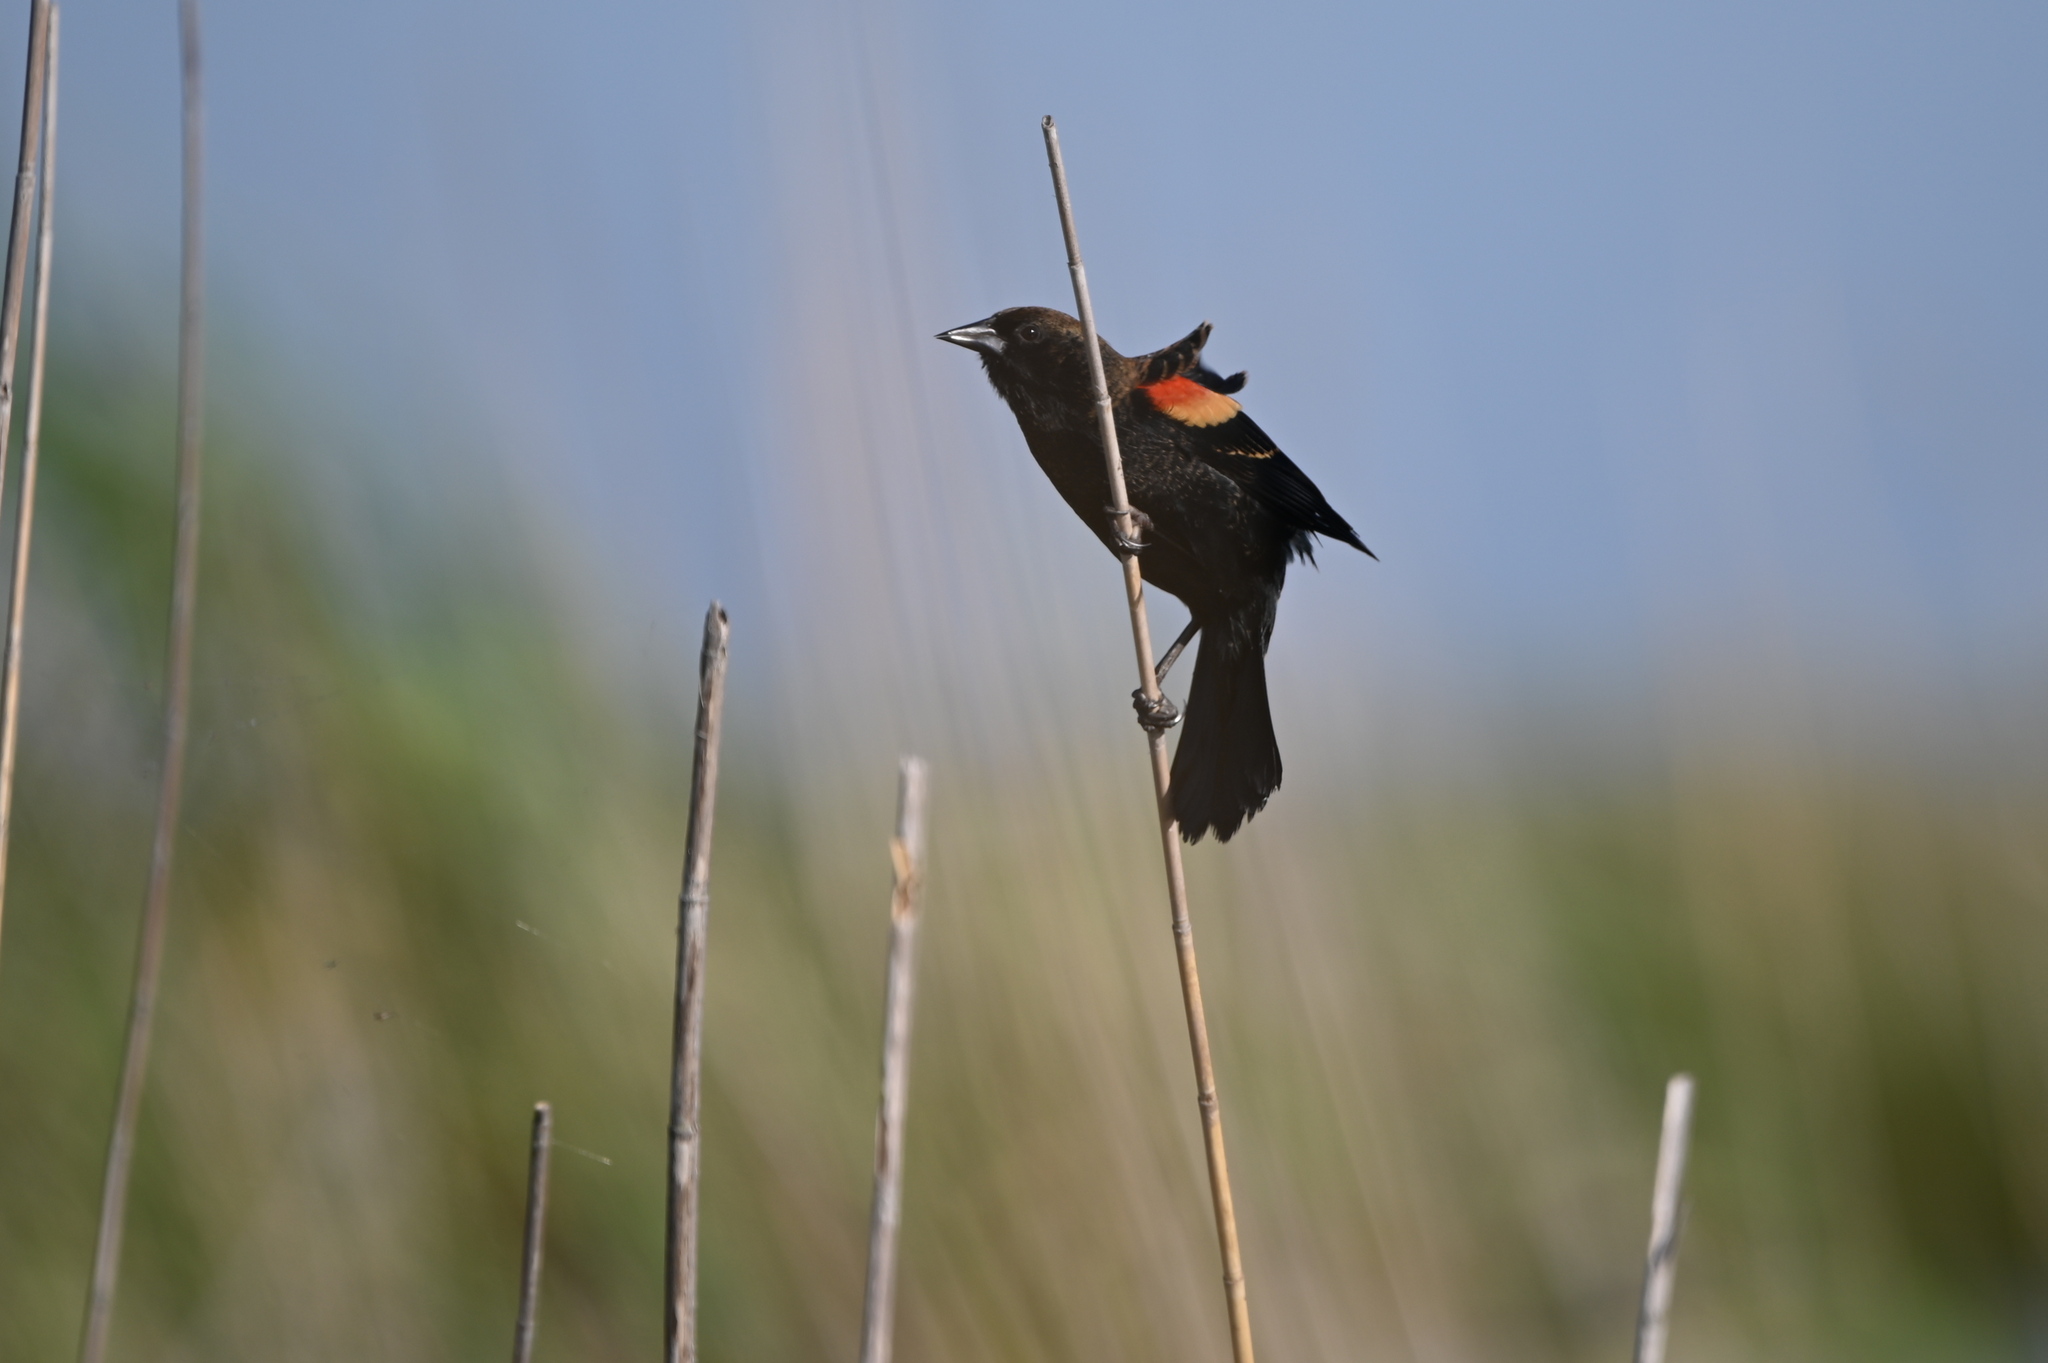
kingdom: Animalia
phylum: Chordata
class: Aves
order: Passeriformes
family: Icteridae
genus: Agelaius
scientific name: Agelaius phoeniceus
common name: Red-winged blackbird
